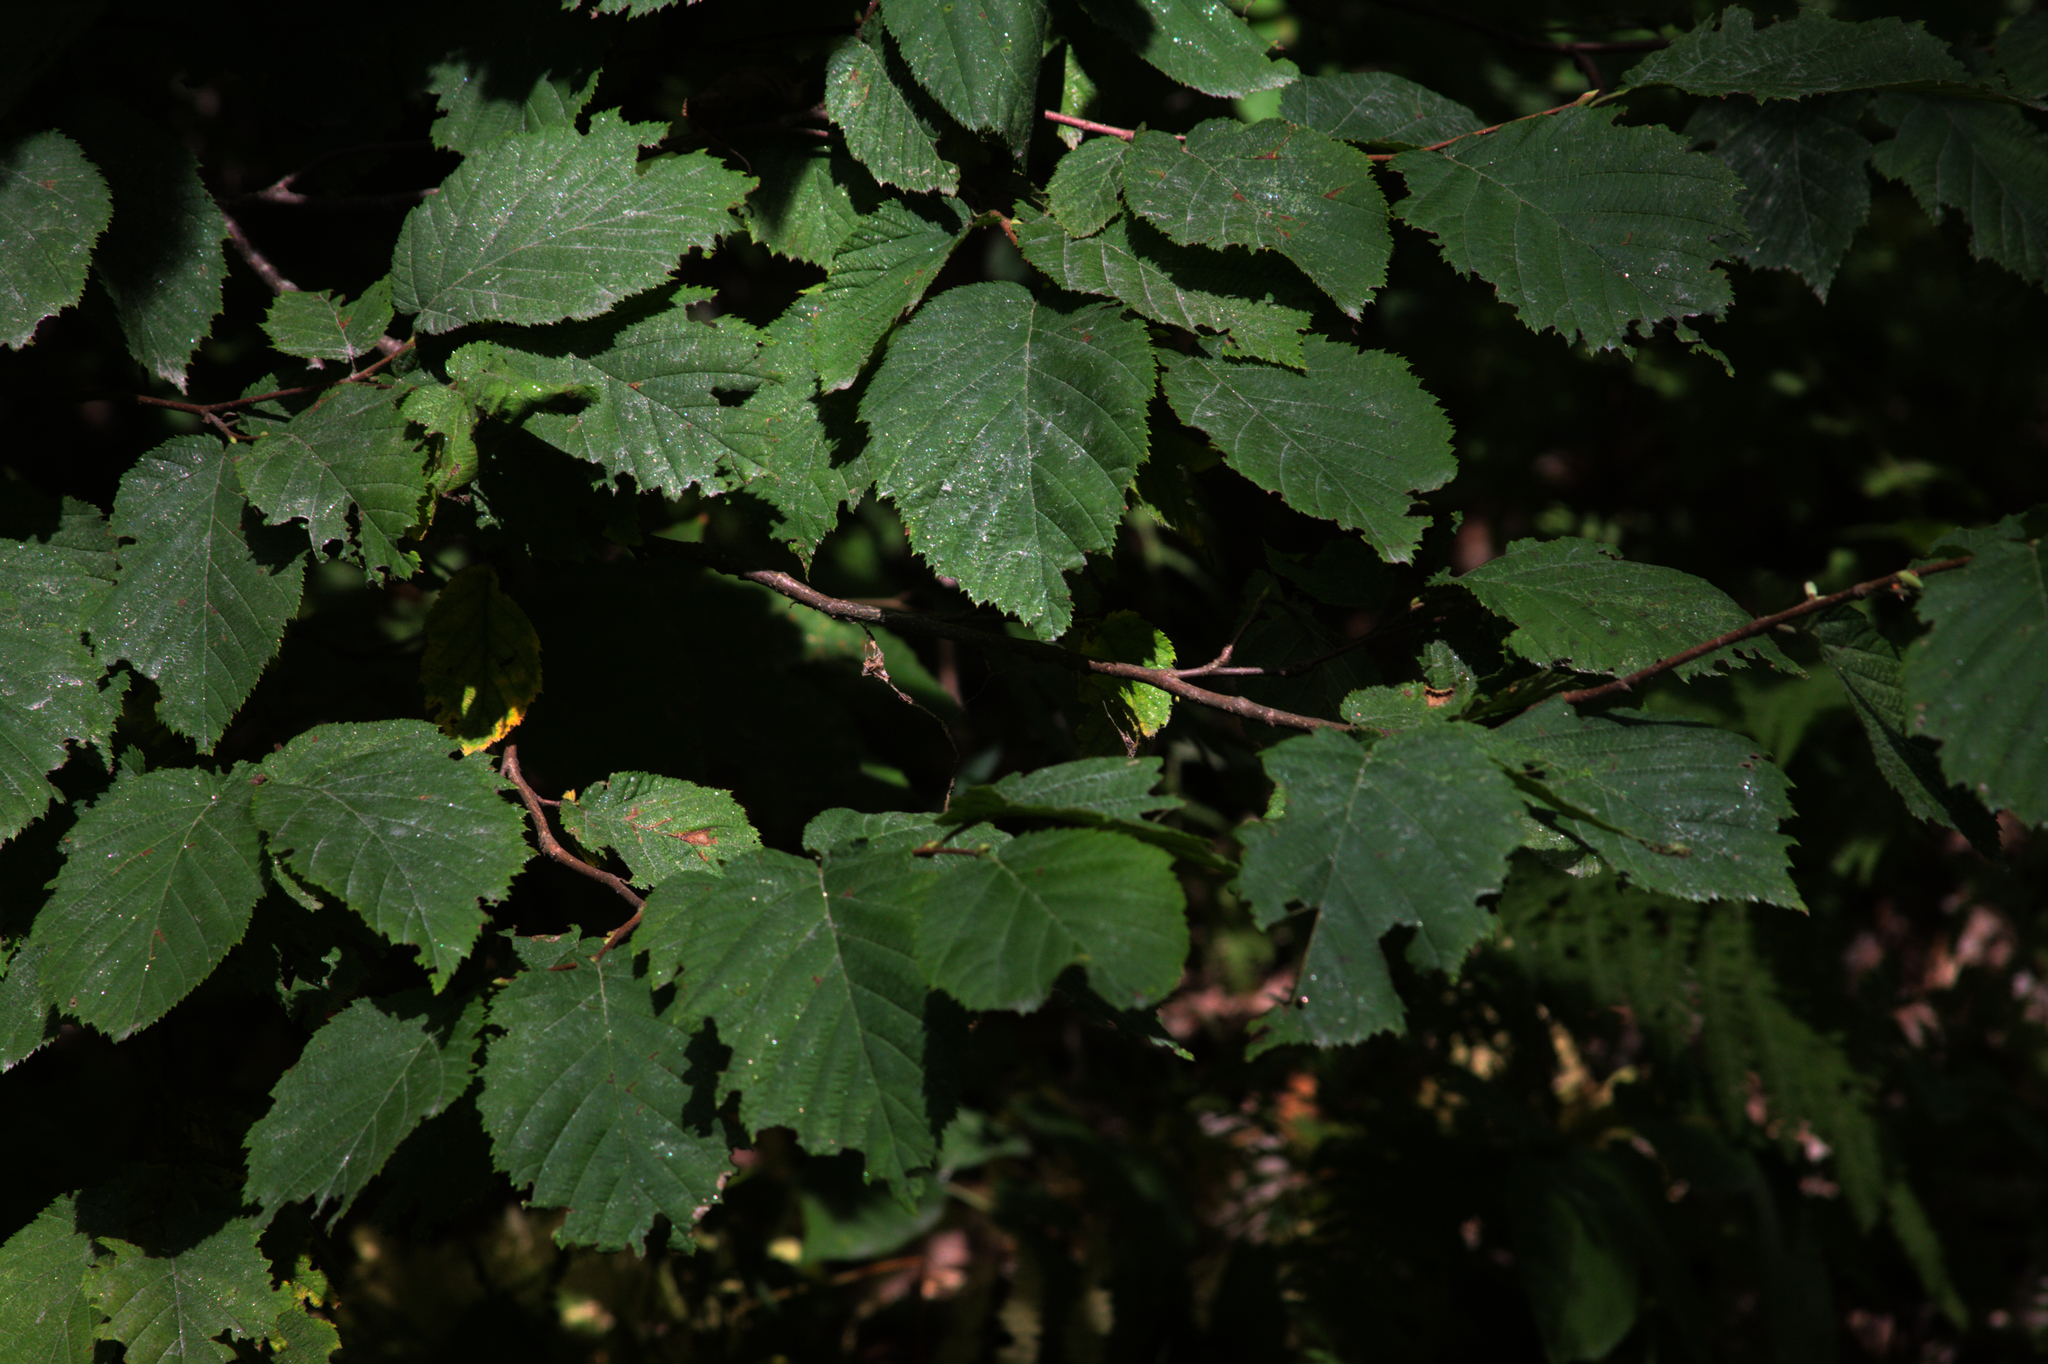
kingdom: Plantae
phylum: Tracheophyta
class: Magnoliopsida
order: Fagales
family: Betulaceae
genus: Corylus
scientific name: Corylus cornuta
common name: Beaked hazel
